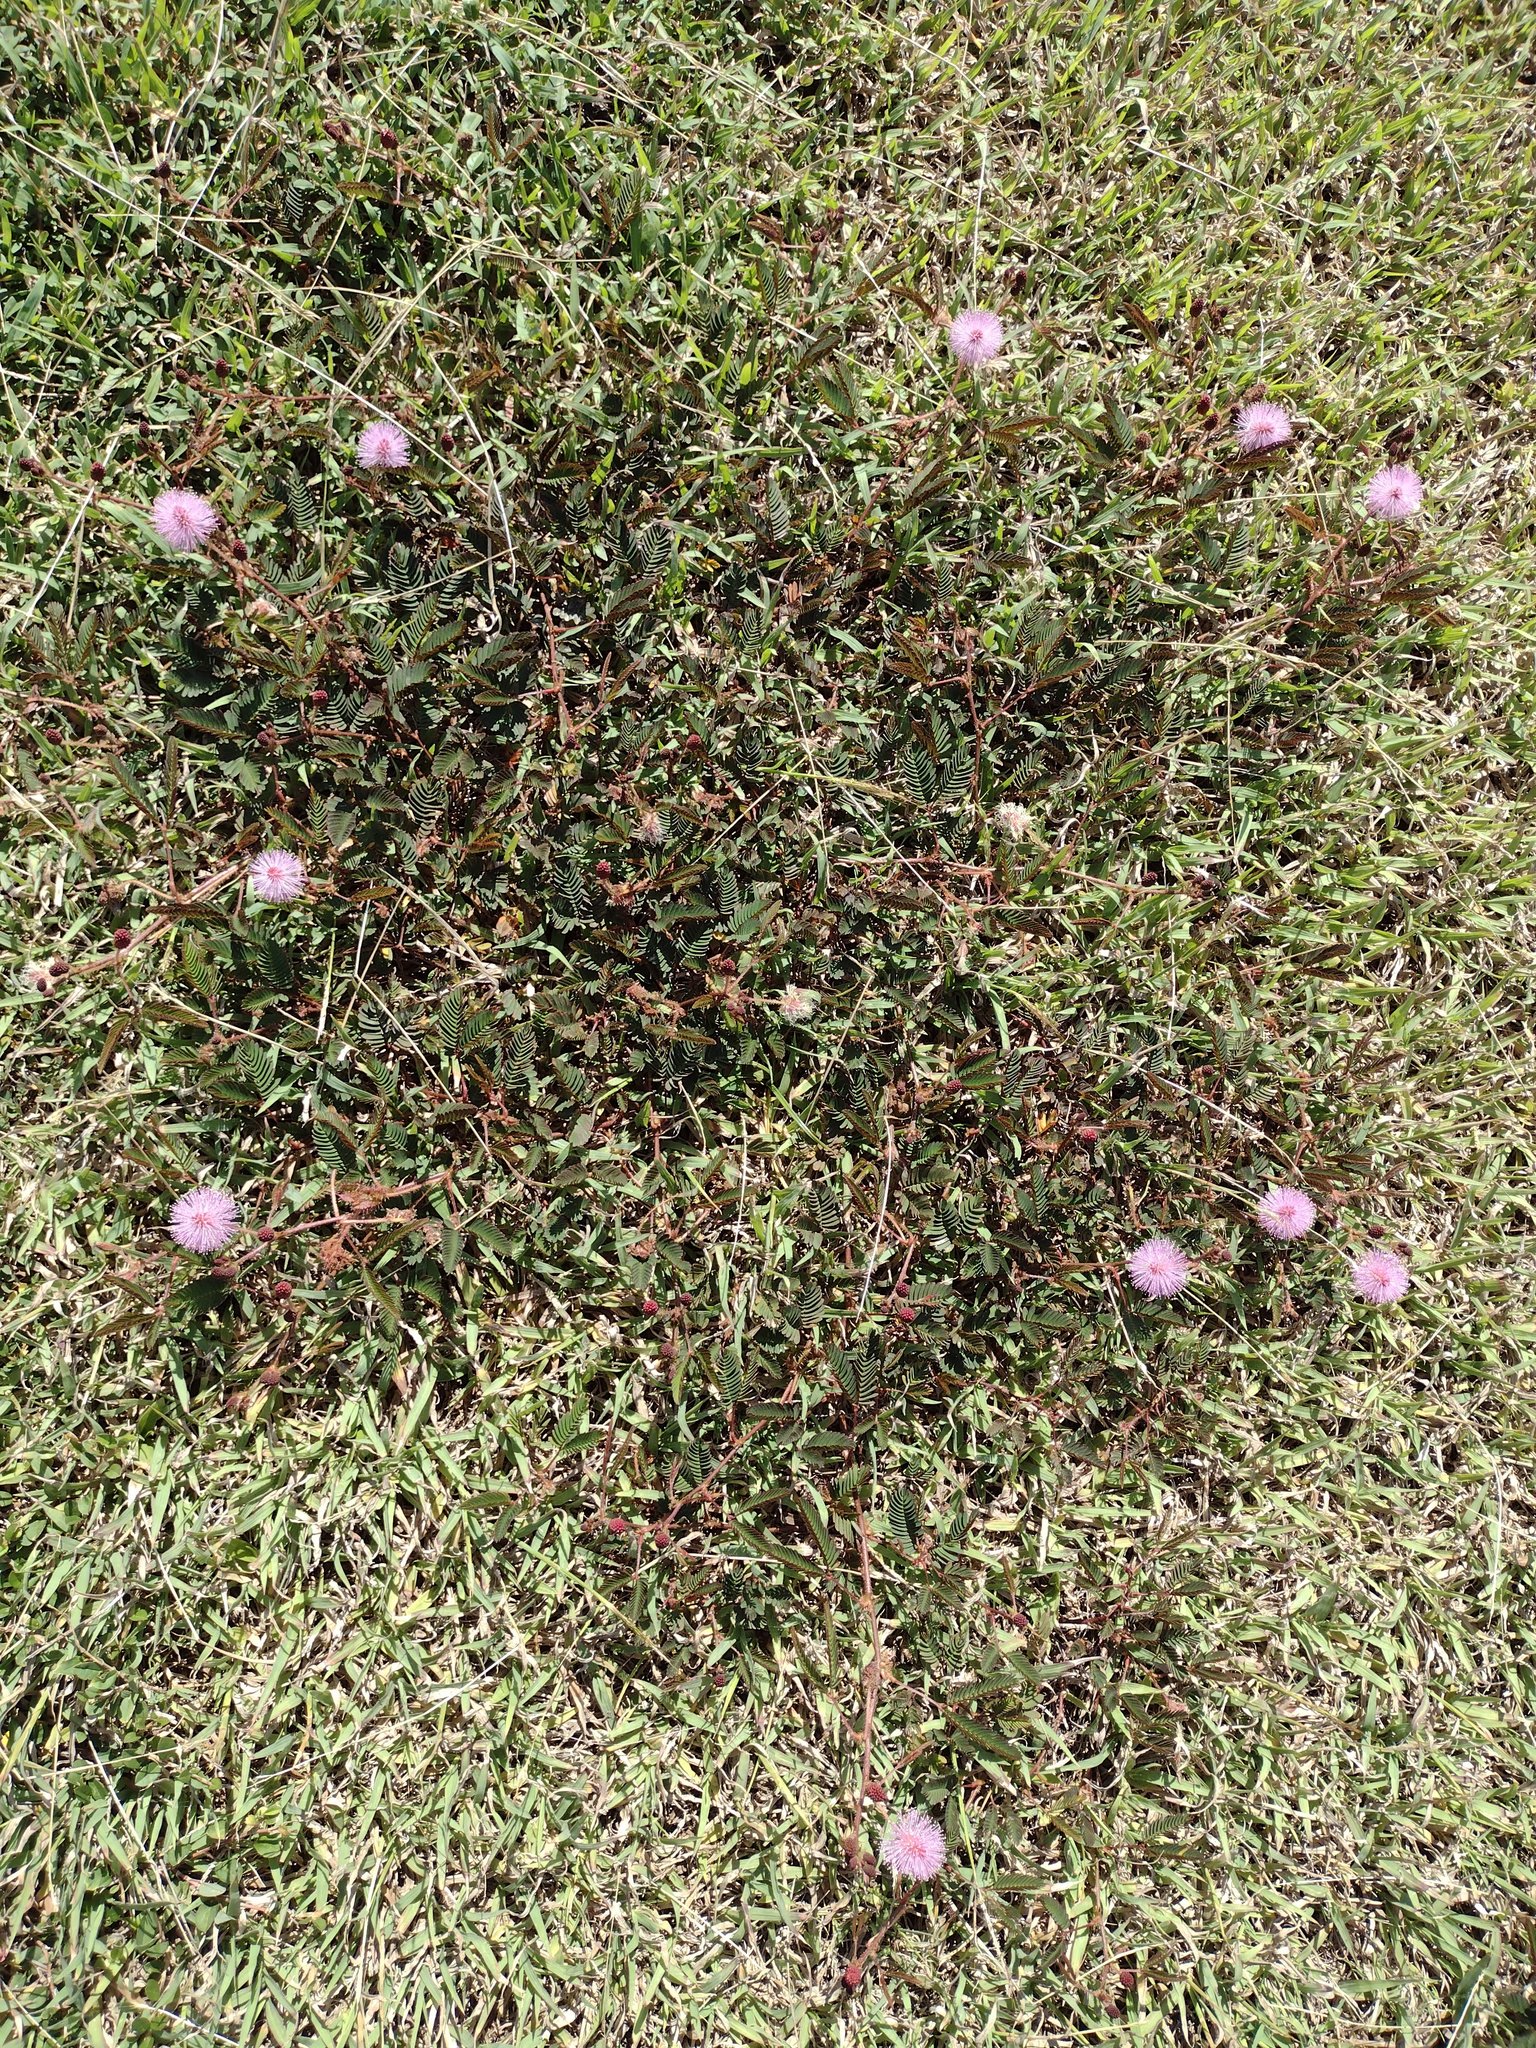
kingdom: Plantae
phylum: Tracheophyta
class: Magnoliopsida
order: Fabales
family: Fabaceae
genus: Mimosa
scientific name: Mimosa pudica
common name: Sensitive plant
